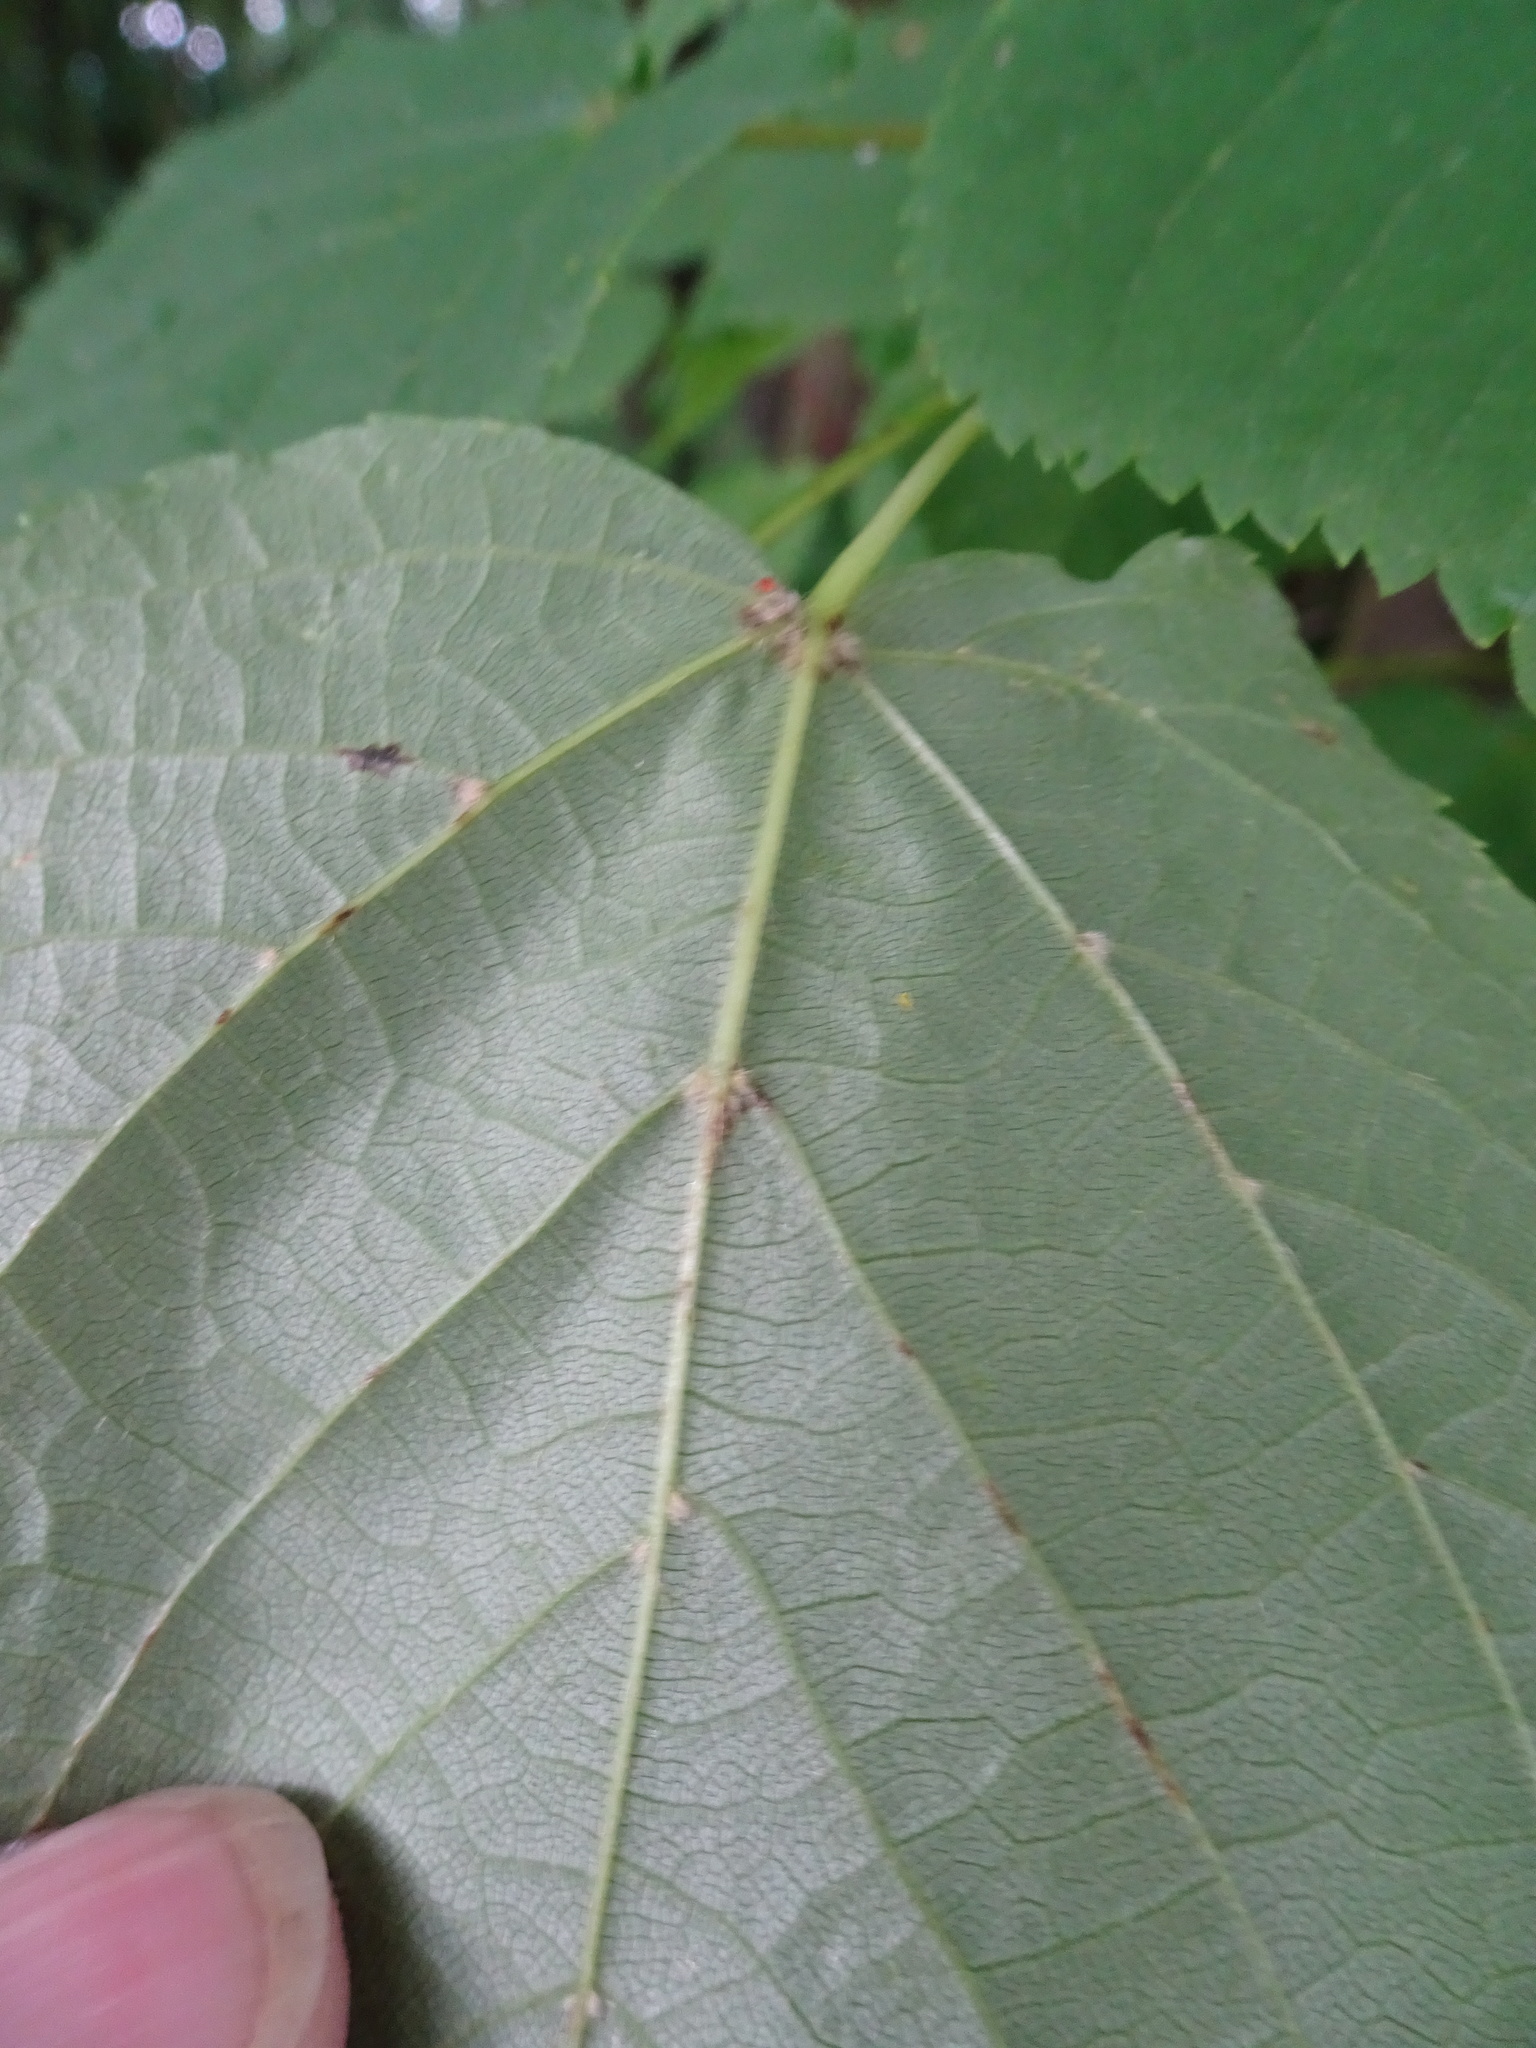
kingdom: Plantae
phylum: Tracheophyta
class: Magnoliopsida
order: Malvales
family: Malvaceae
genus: Tilia
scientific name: Tilia cordata
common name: Small-leaved lime
